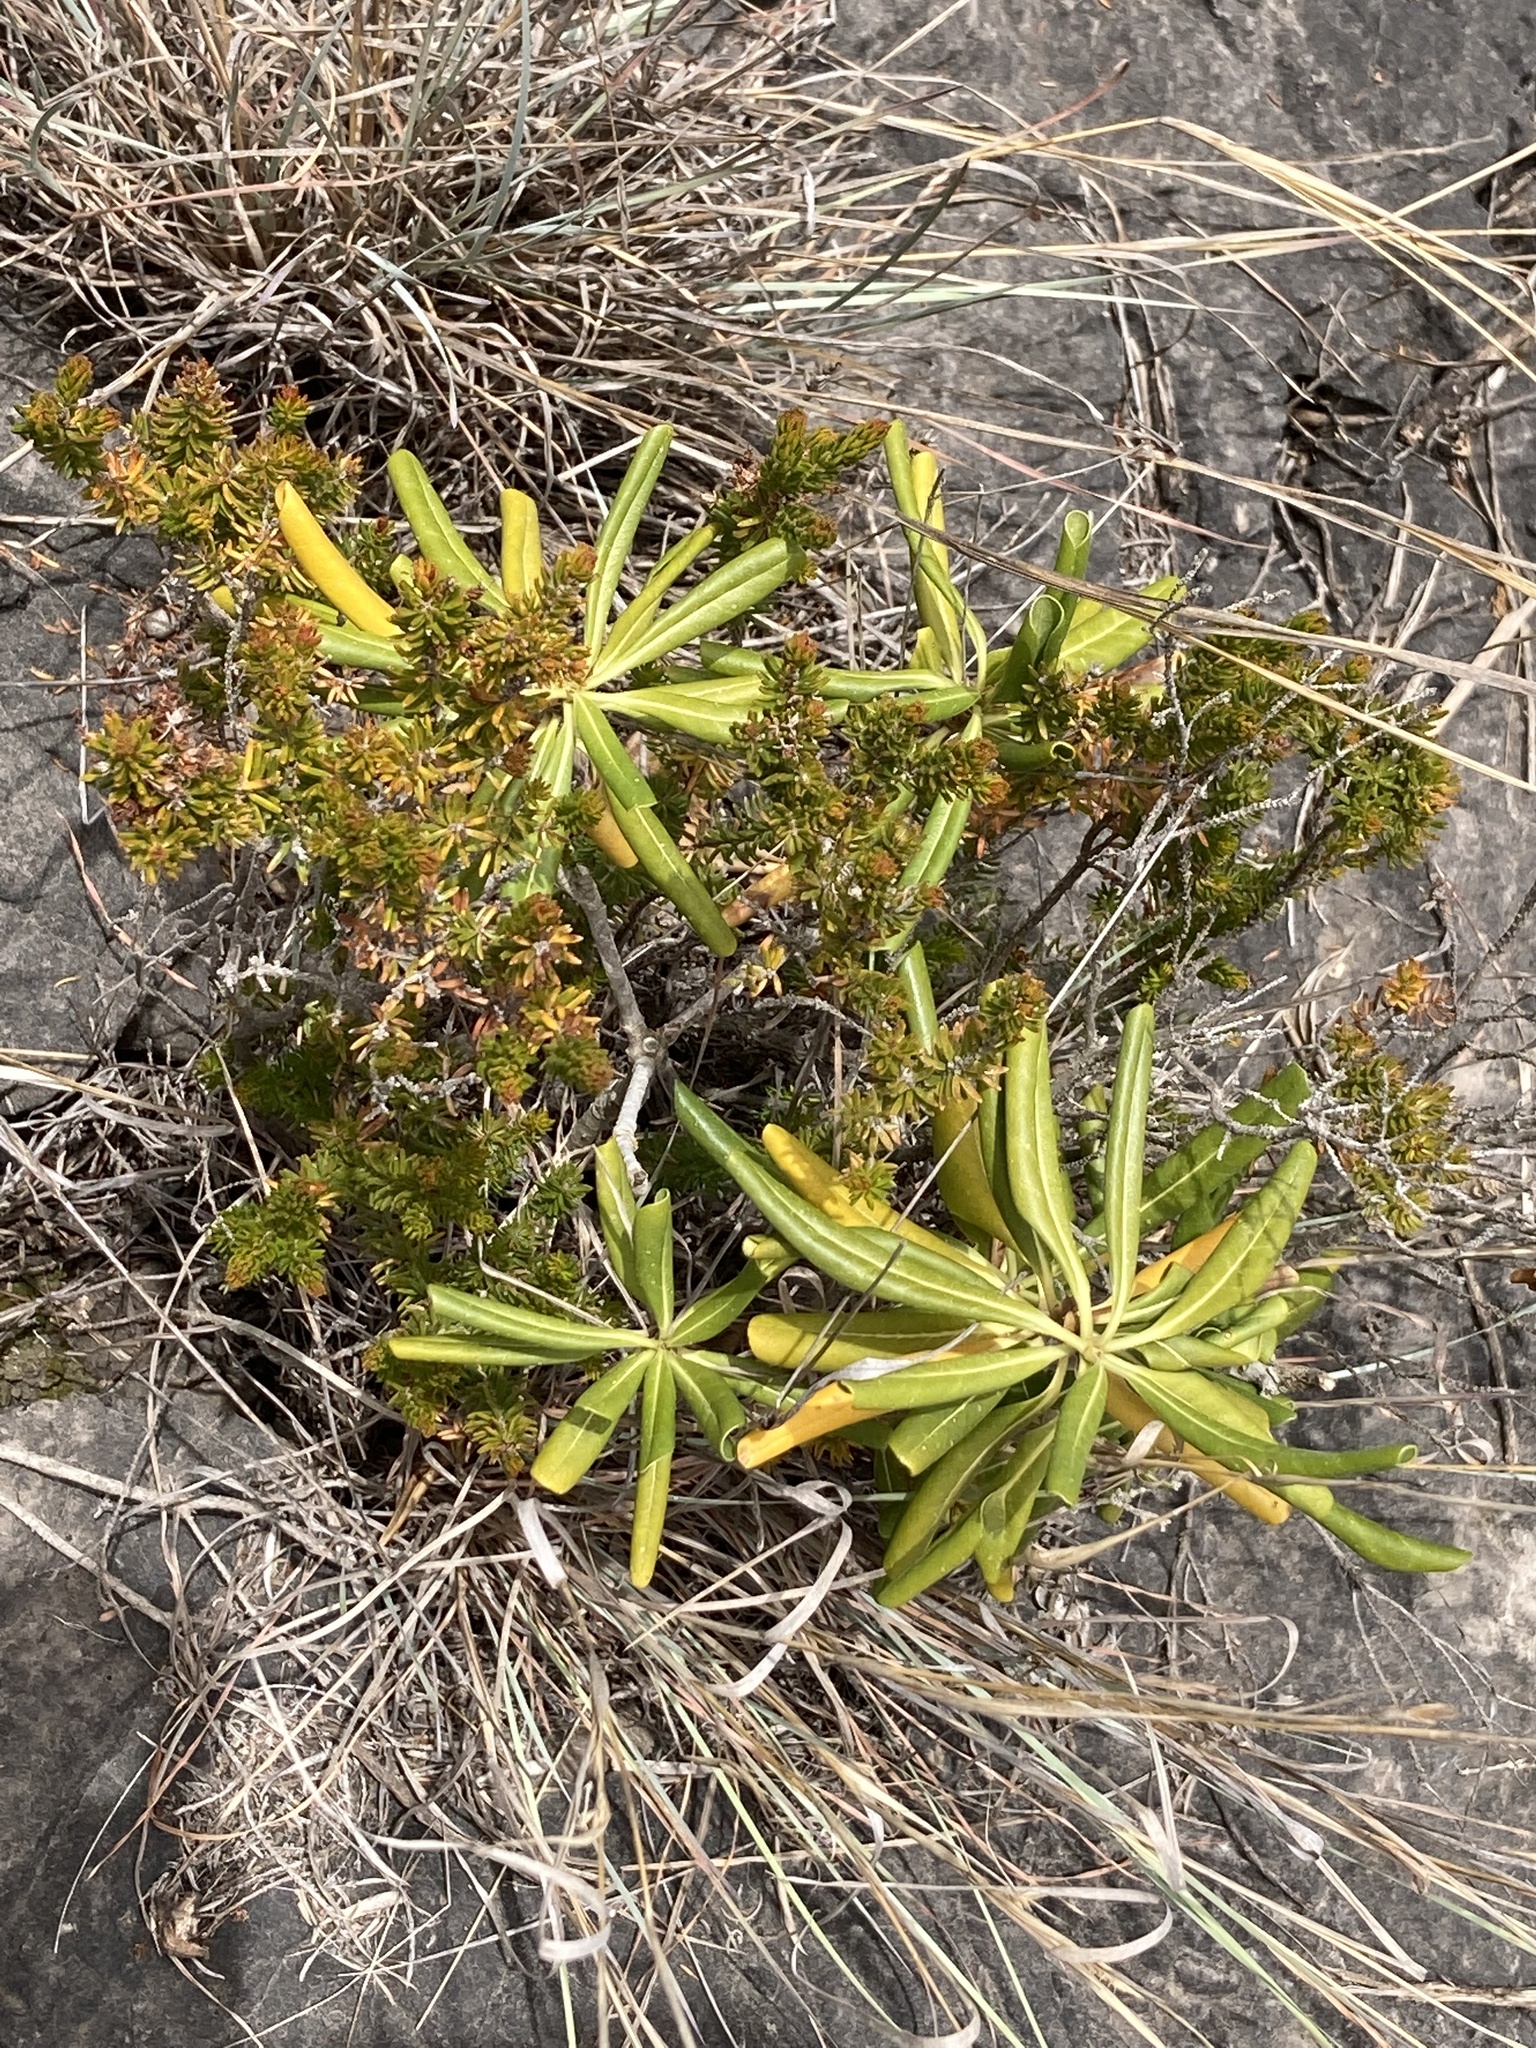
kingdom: Plantae
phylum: Tracheophyta
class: Magnoliopsida
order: Apiales
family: Pittosporaceae
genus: Pittosporum
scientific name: Pittosporum tobira
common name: Japanese cheesewood
